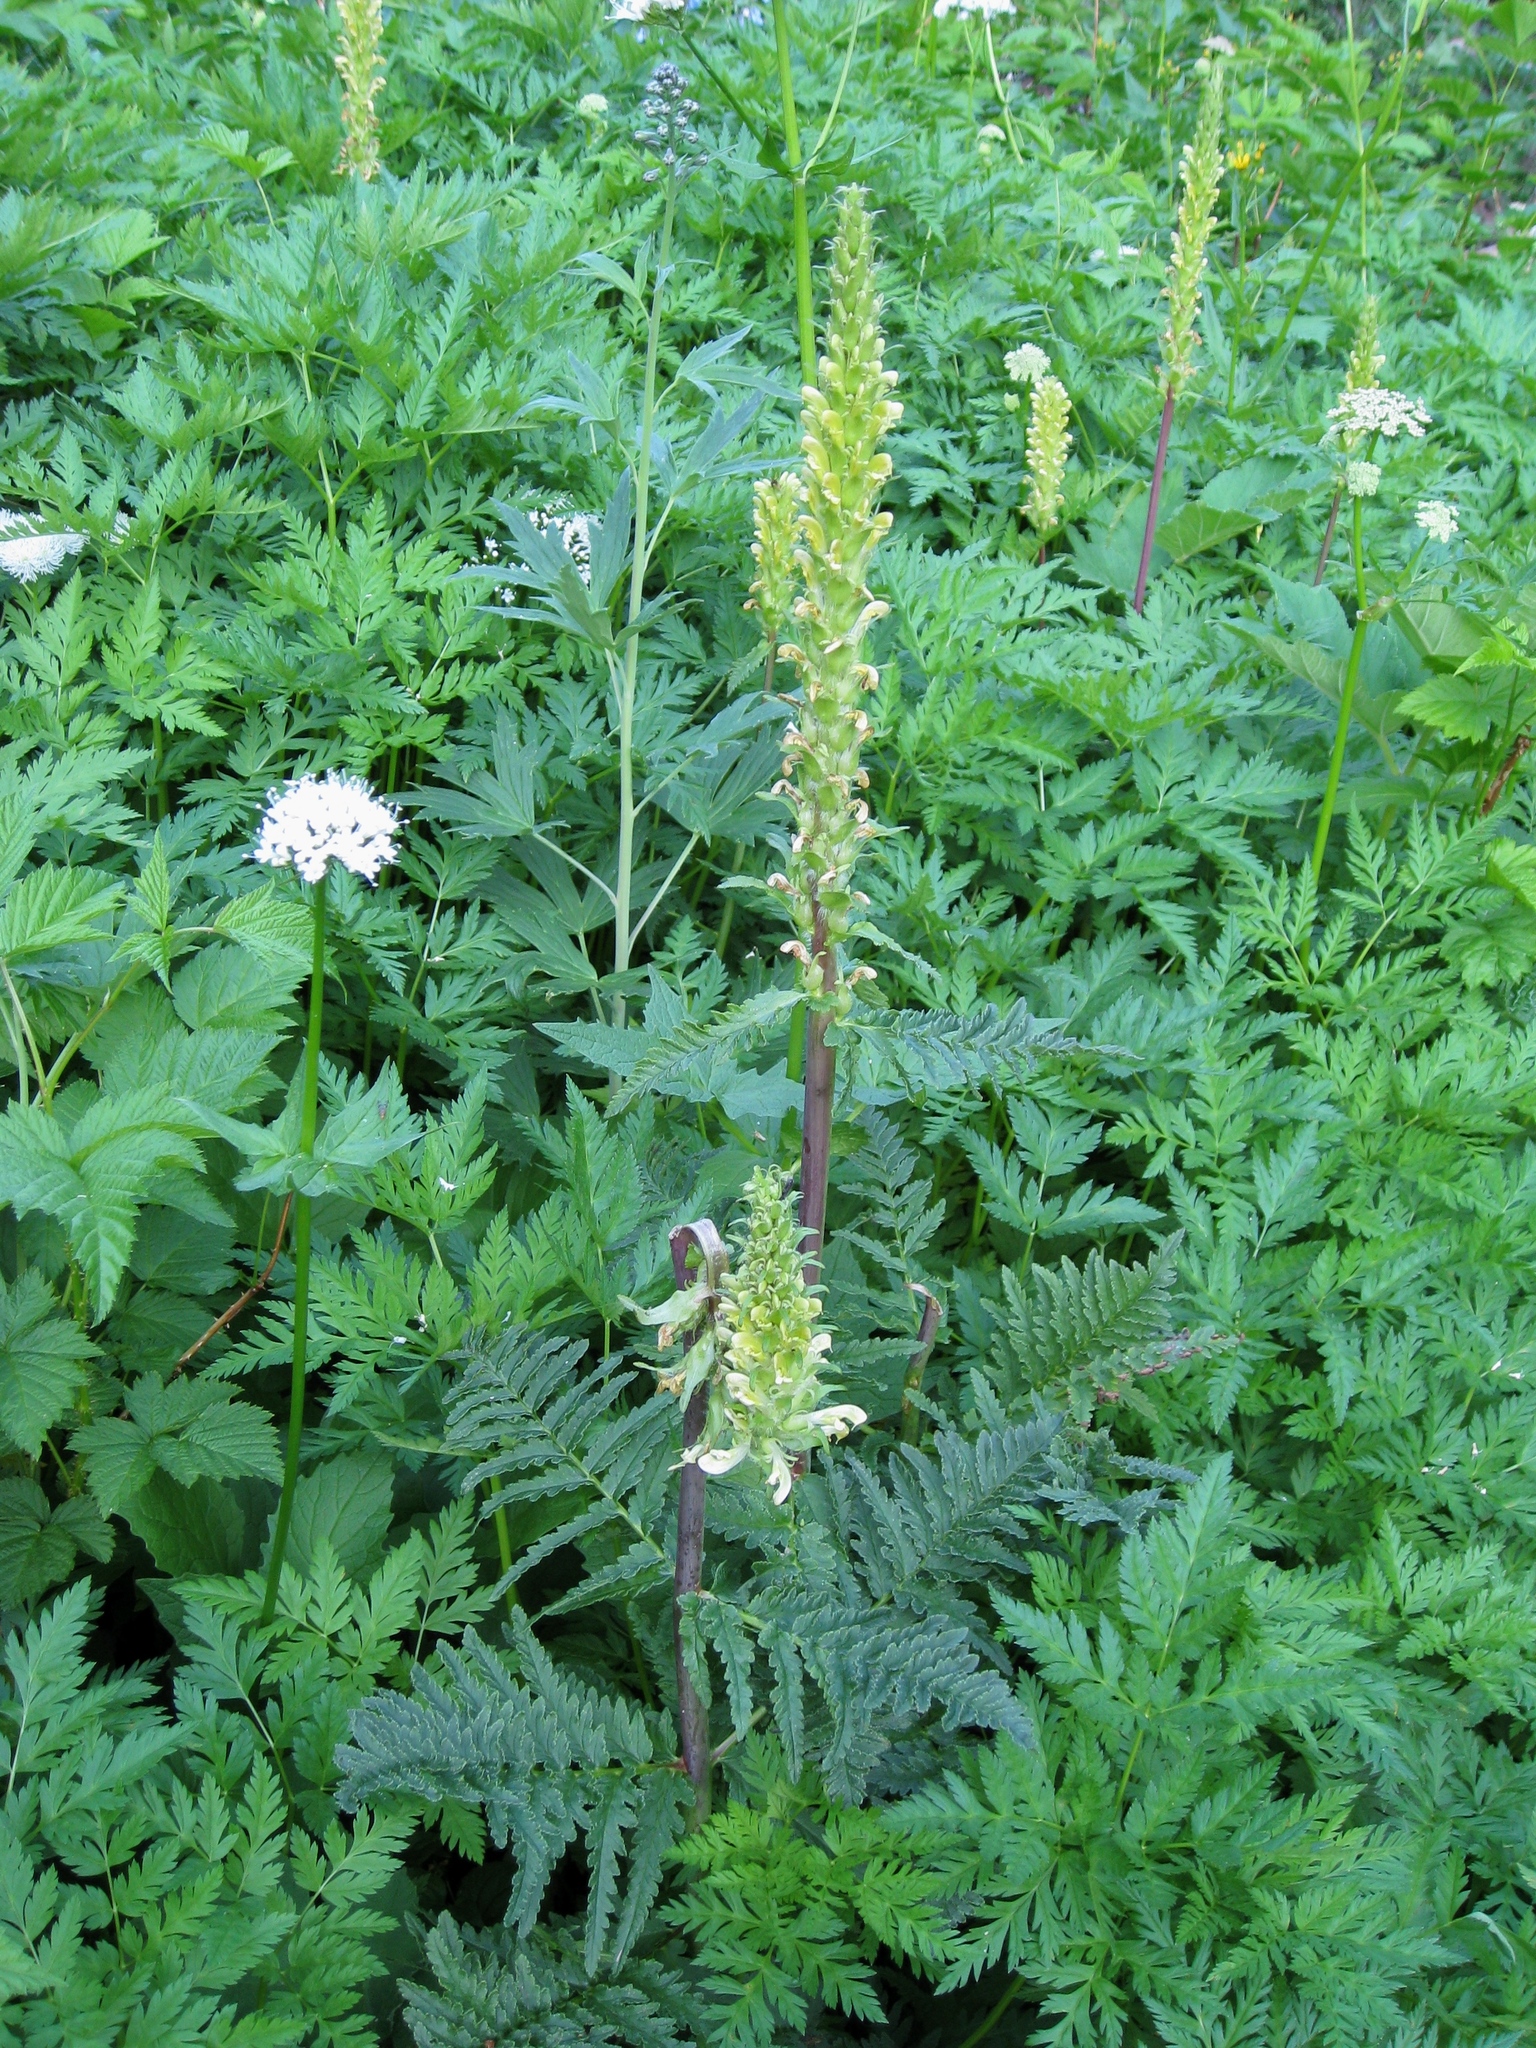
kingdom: Plantae
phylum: Tracheophyta
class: Magnoliopsida
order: Lamiales
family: Orobanchaceae
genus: Pedicularis
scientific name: Pedicularis bracteosa
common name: Bracted lousewort
